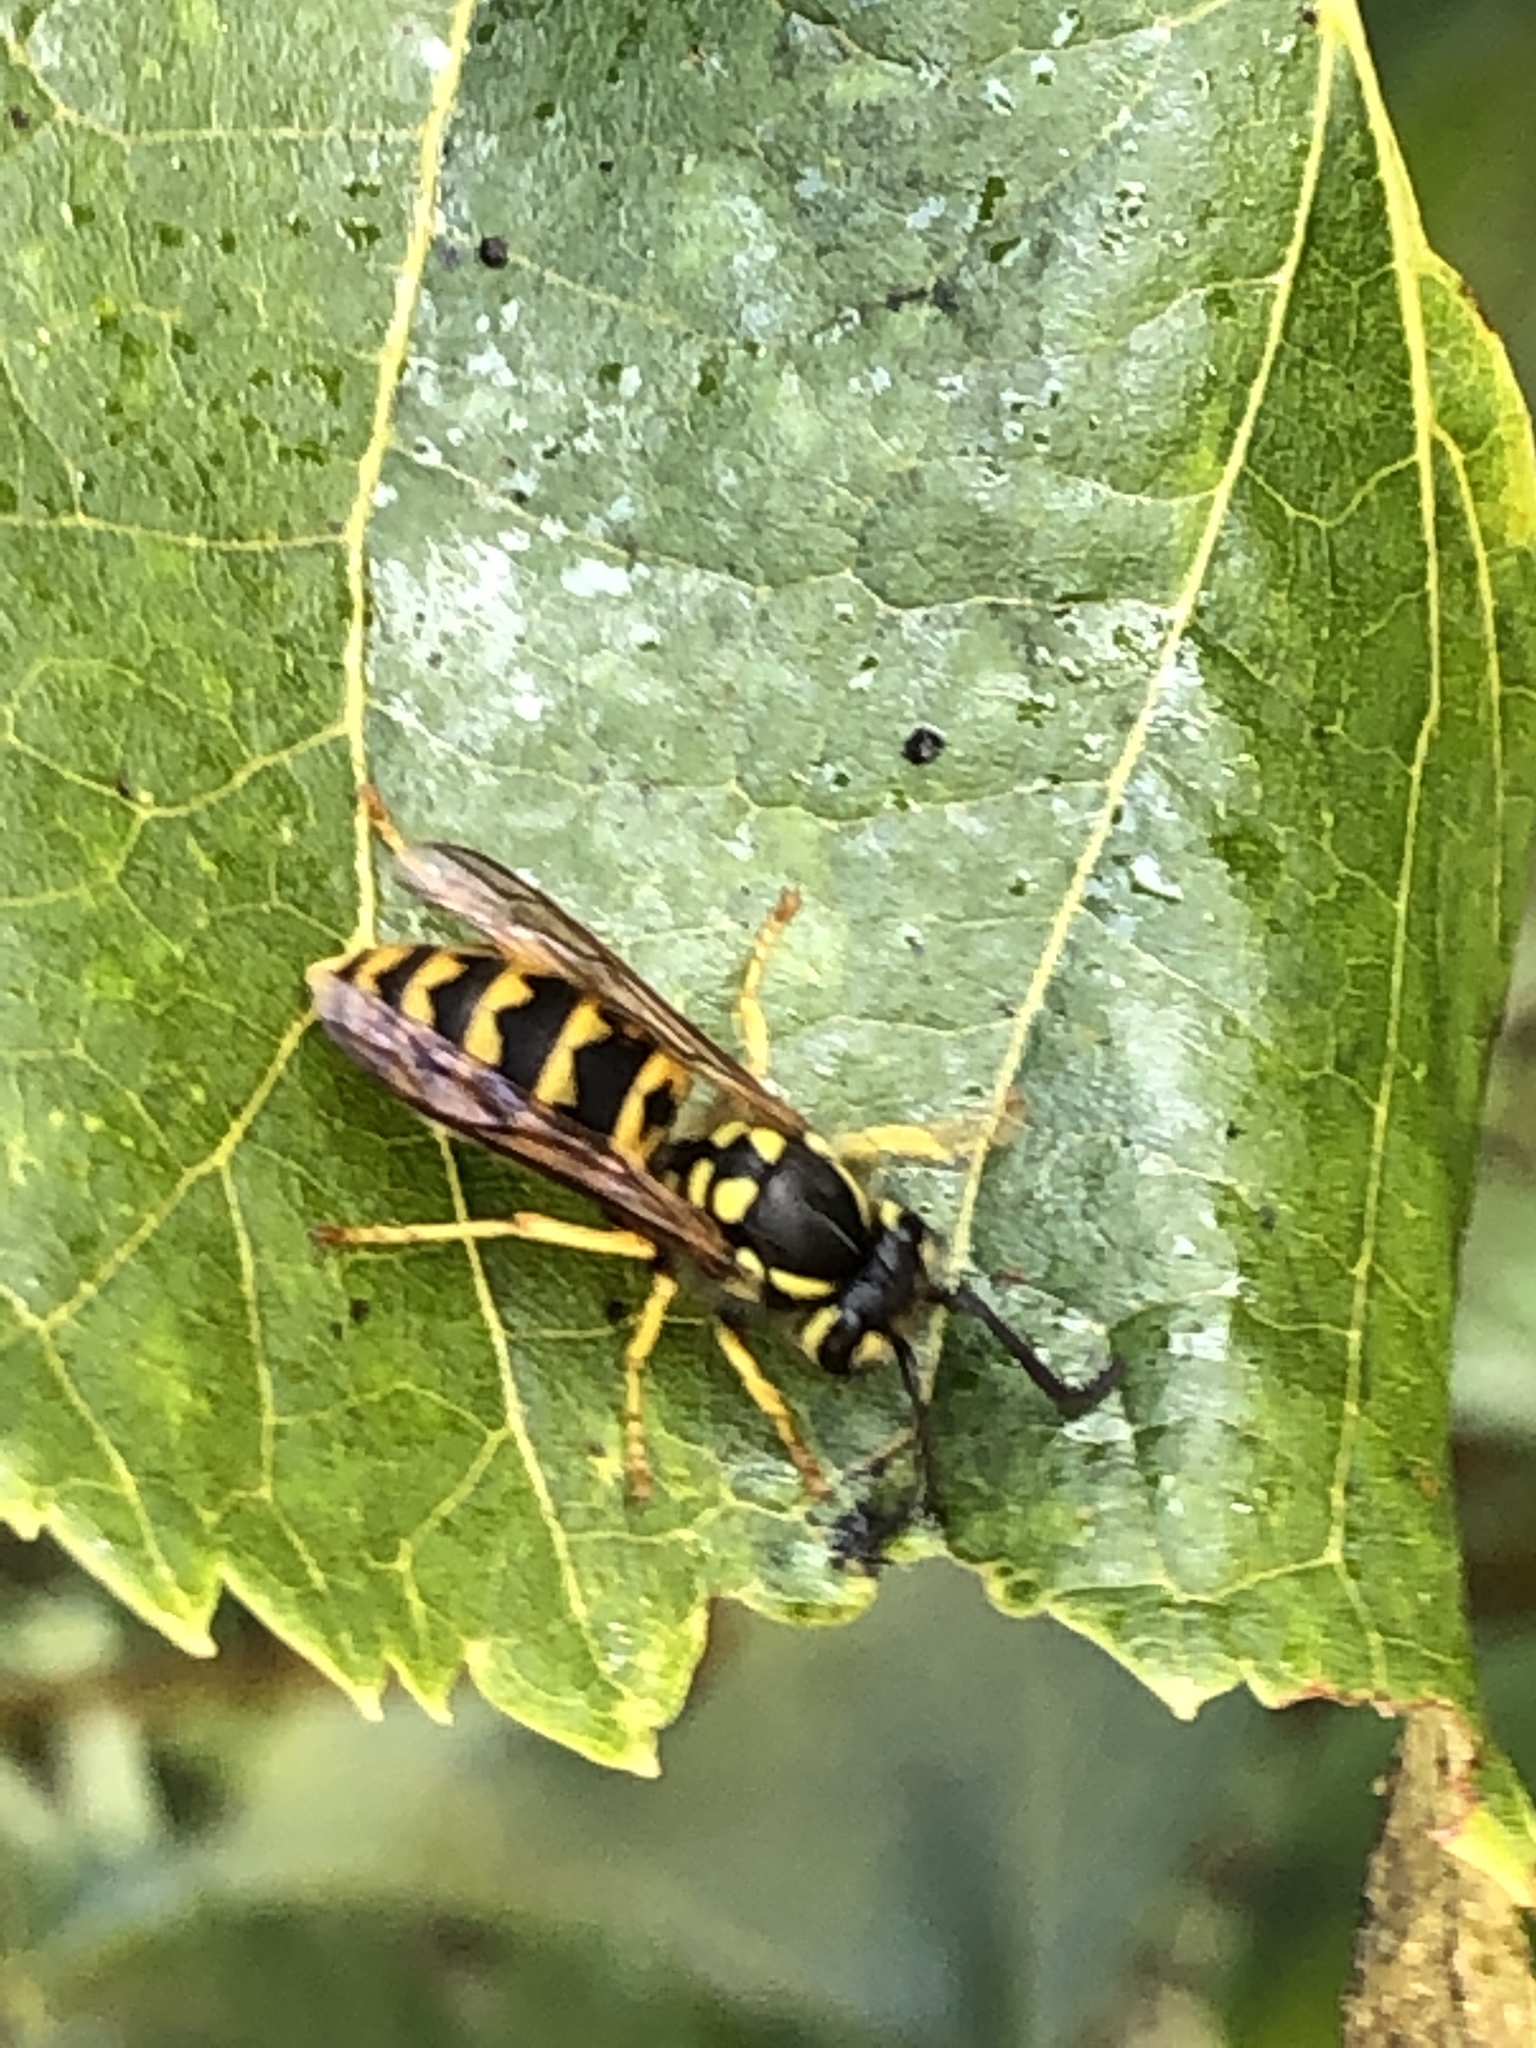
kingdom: Animalia
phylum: Arthropoda
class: Insecta
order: Hymenoptera
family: Vespidae
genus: Vespula
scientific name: Vespula germanica
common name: German wasp
